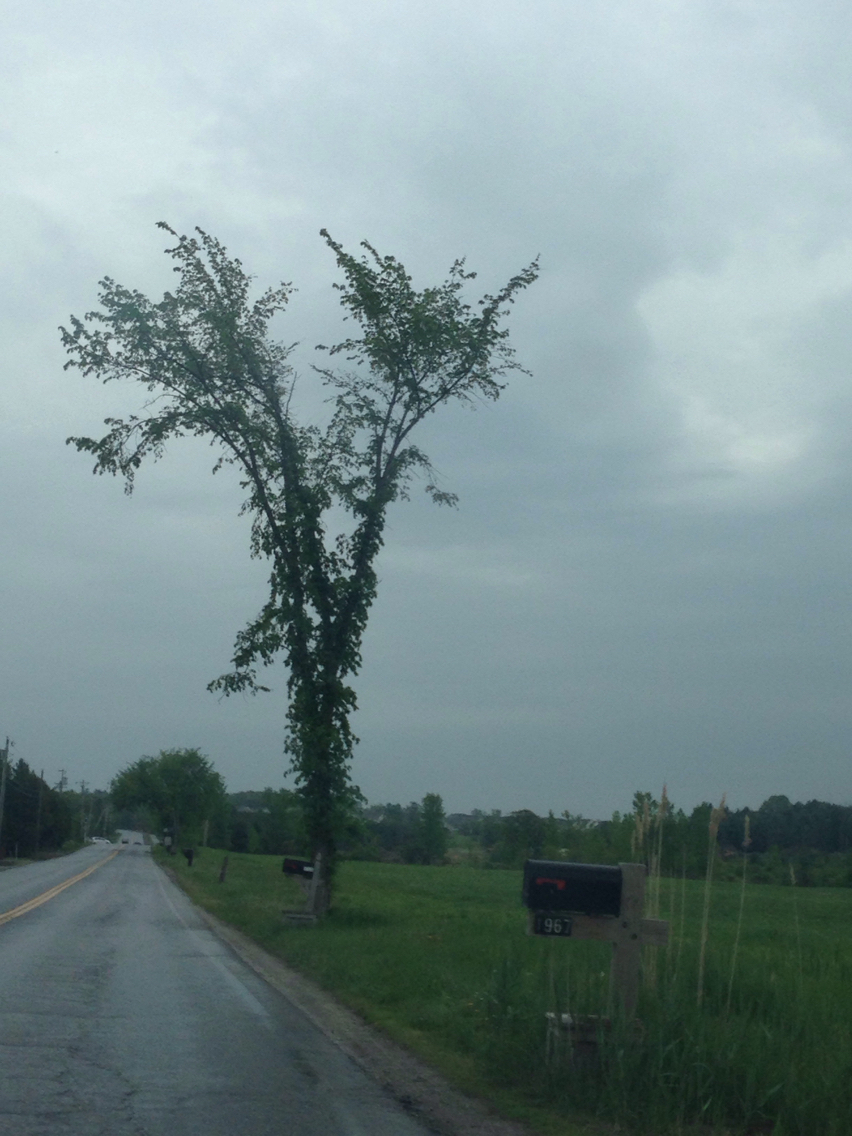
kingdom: Plantae
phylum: Tracheophyta
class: Magnoliopsida
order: Rosales
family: Ulmaceae
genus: Ulmus
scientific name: Ulmus americana
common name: American elm
